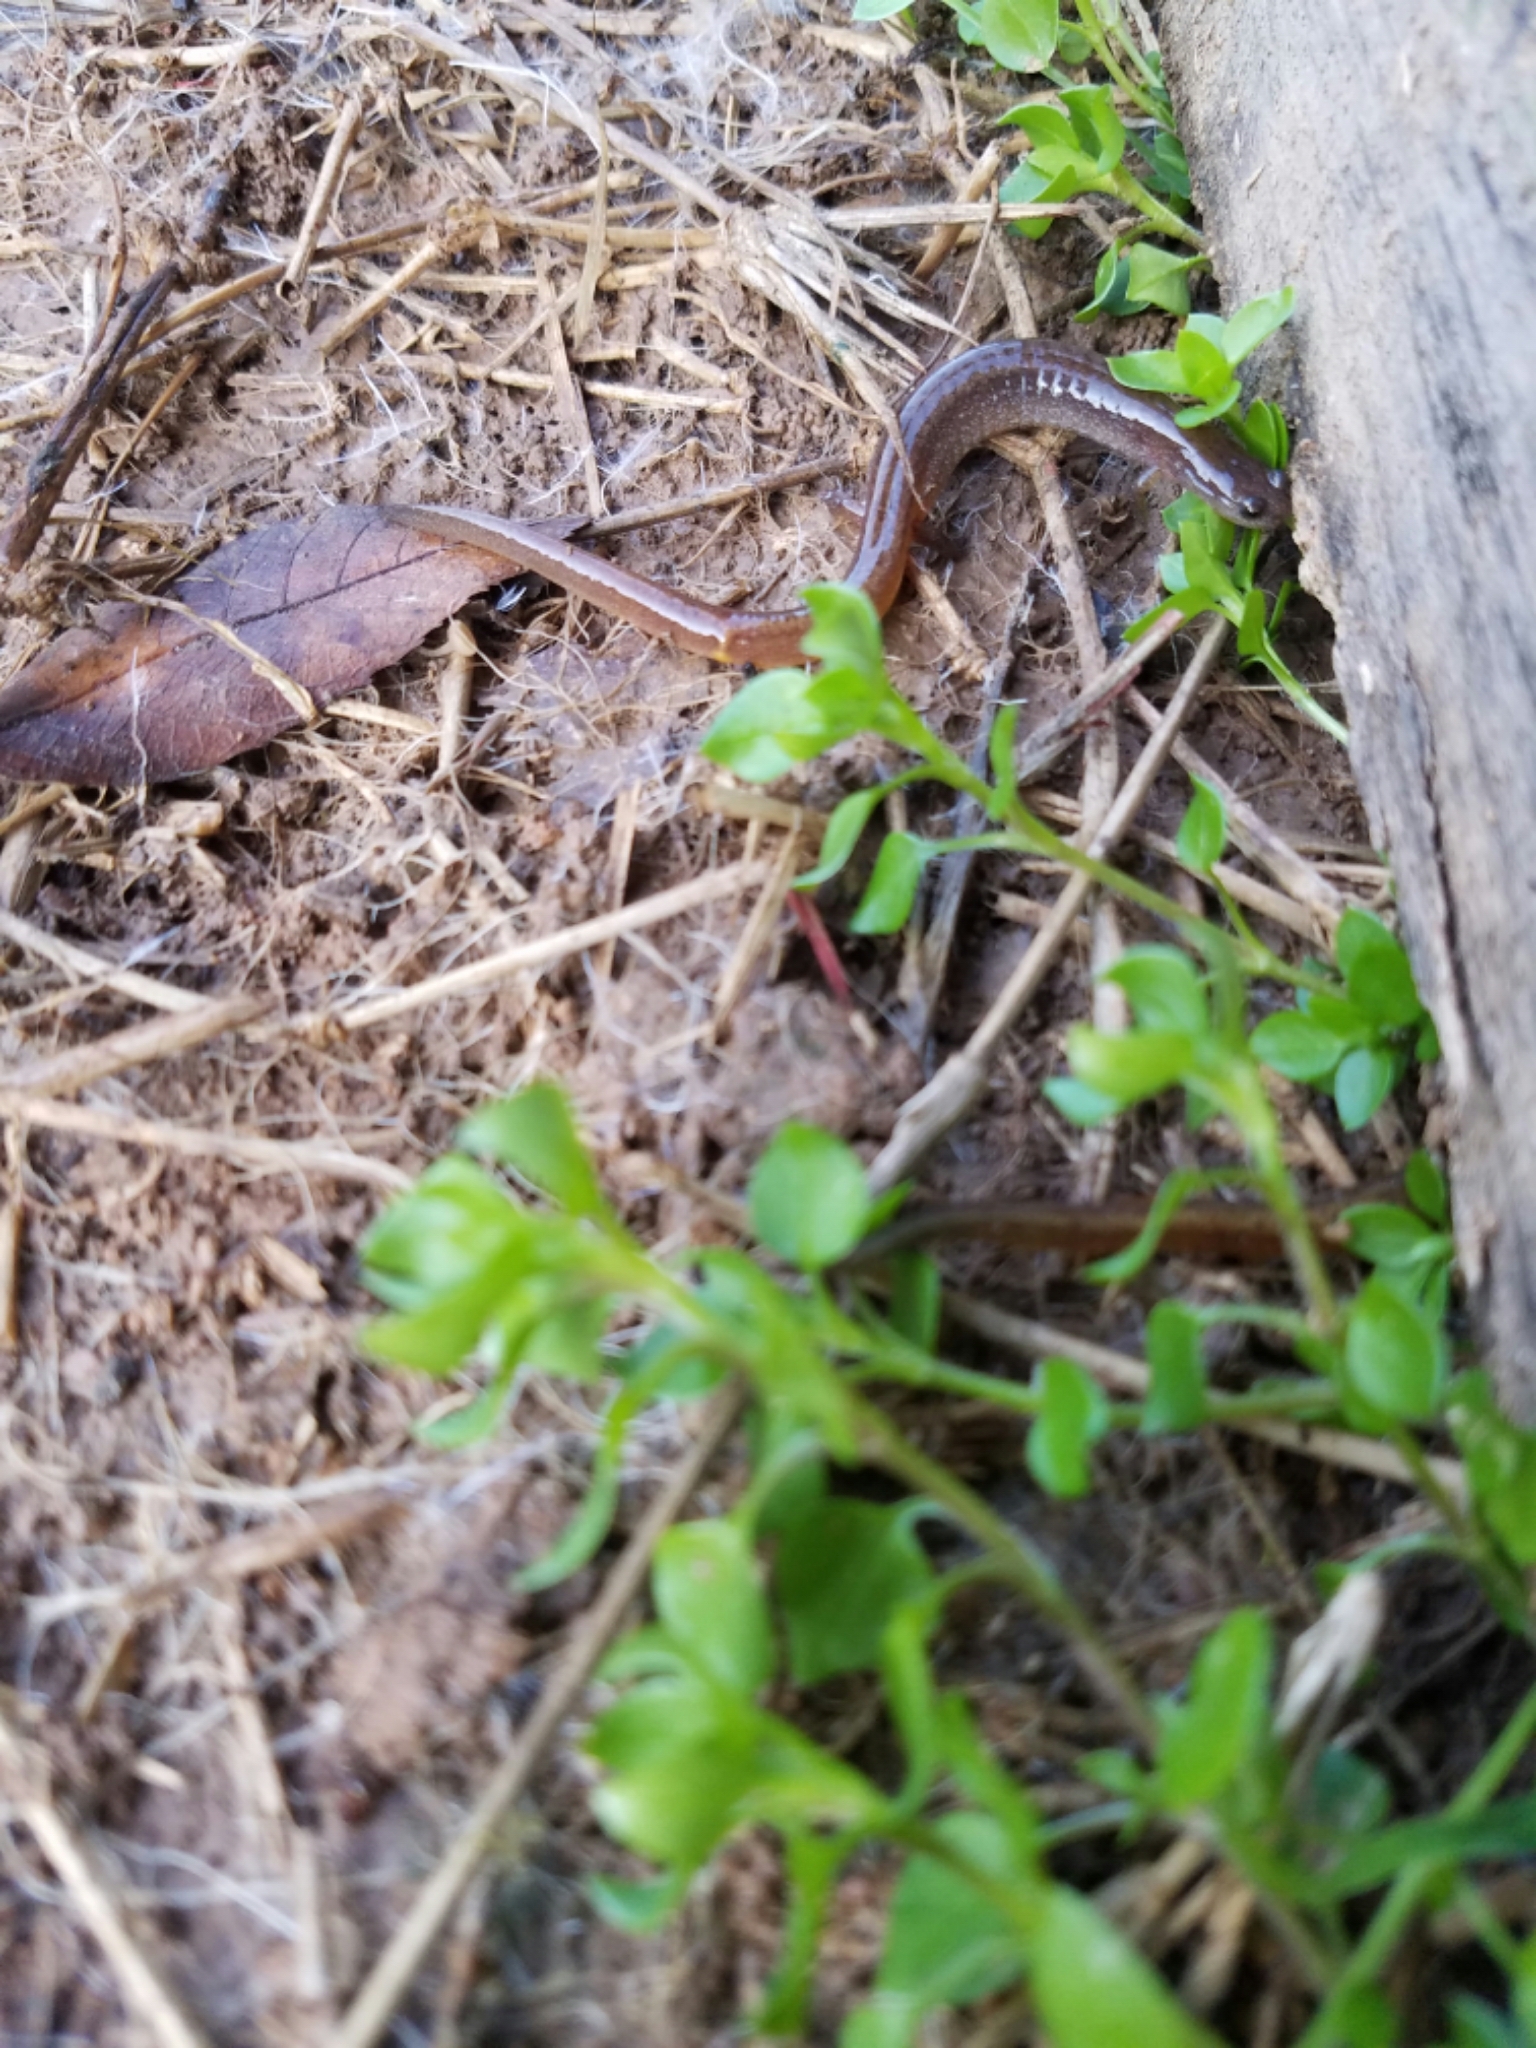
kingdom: Animalia
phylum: Chordata
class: Amphibia
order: Caudata
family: Plethodontidae
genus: Eurycea
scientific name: Eurycea multiplicata
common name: Many-ribbed salamander
